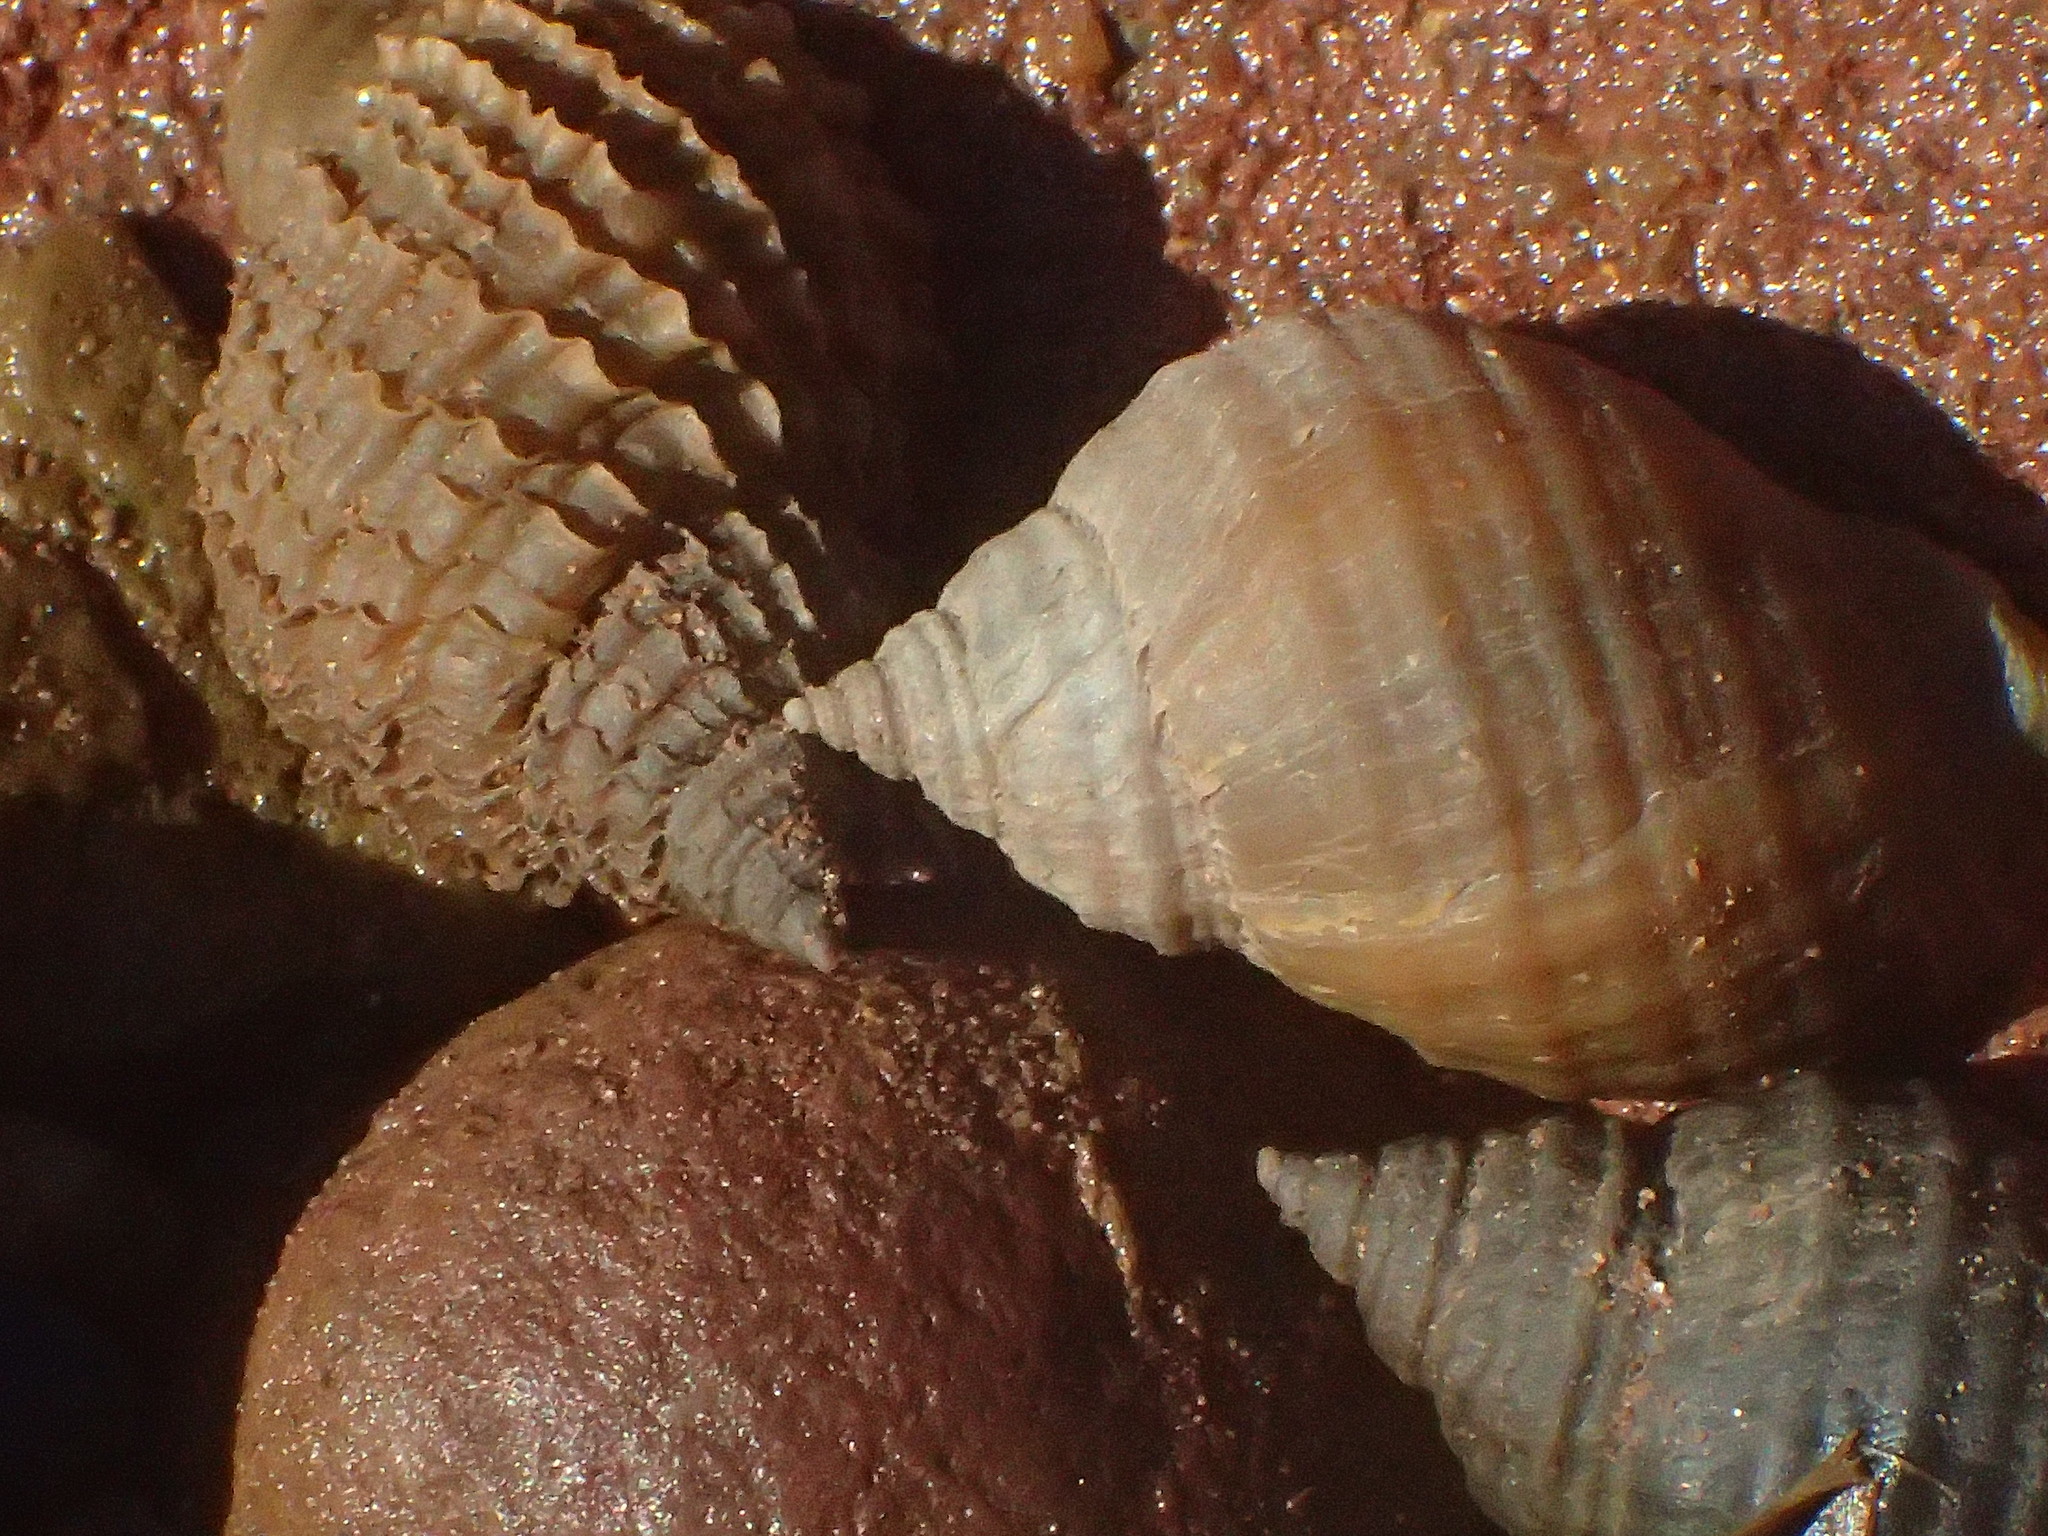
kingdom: Animalia
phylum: Mollusca
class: Gastropoda
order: Neogastropoda
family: Muricidae
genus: Nucella
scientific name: Nucella lapillus
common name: Dog whelk
